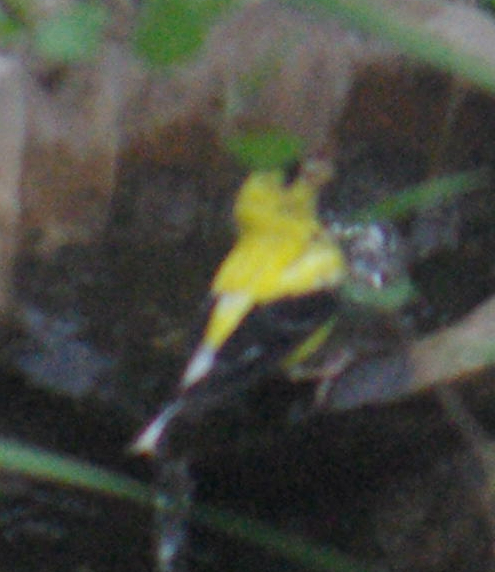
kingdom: Animalia
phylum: Chordata
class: Aves
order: Passeriformes
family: Fringillidae
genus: Spinus
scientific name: Spinus tristis
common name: American goldfinch
